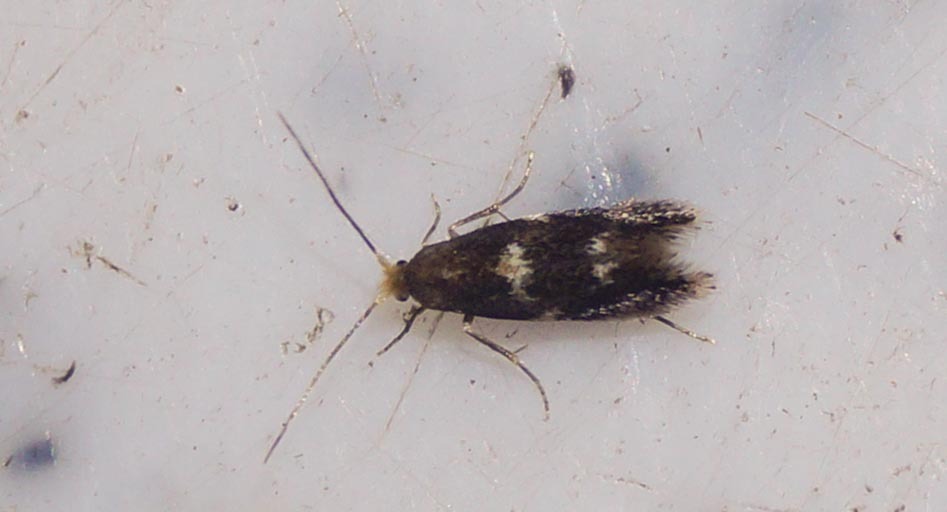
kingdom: Animalia
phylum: Arthropoda
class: Insecta
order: Lepidoptera
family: Bucculatricidae
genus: Bucculatrix
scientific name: Bucculatrix cidarella
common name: Alder bent-wing
